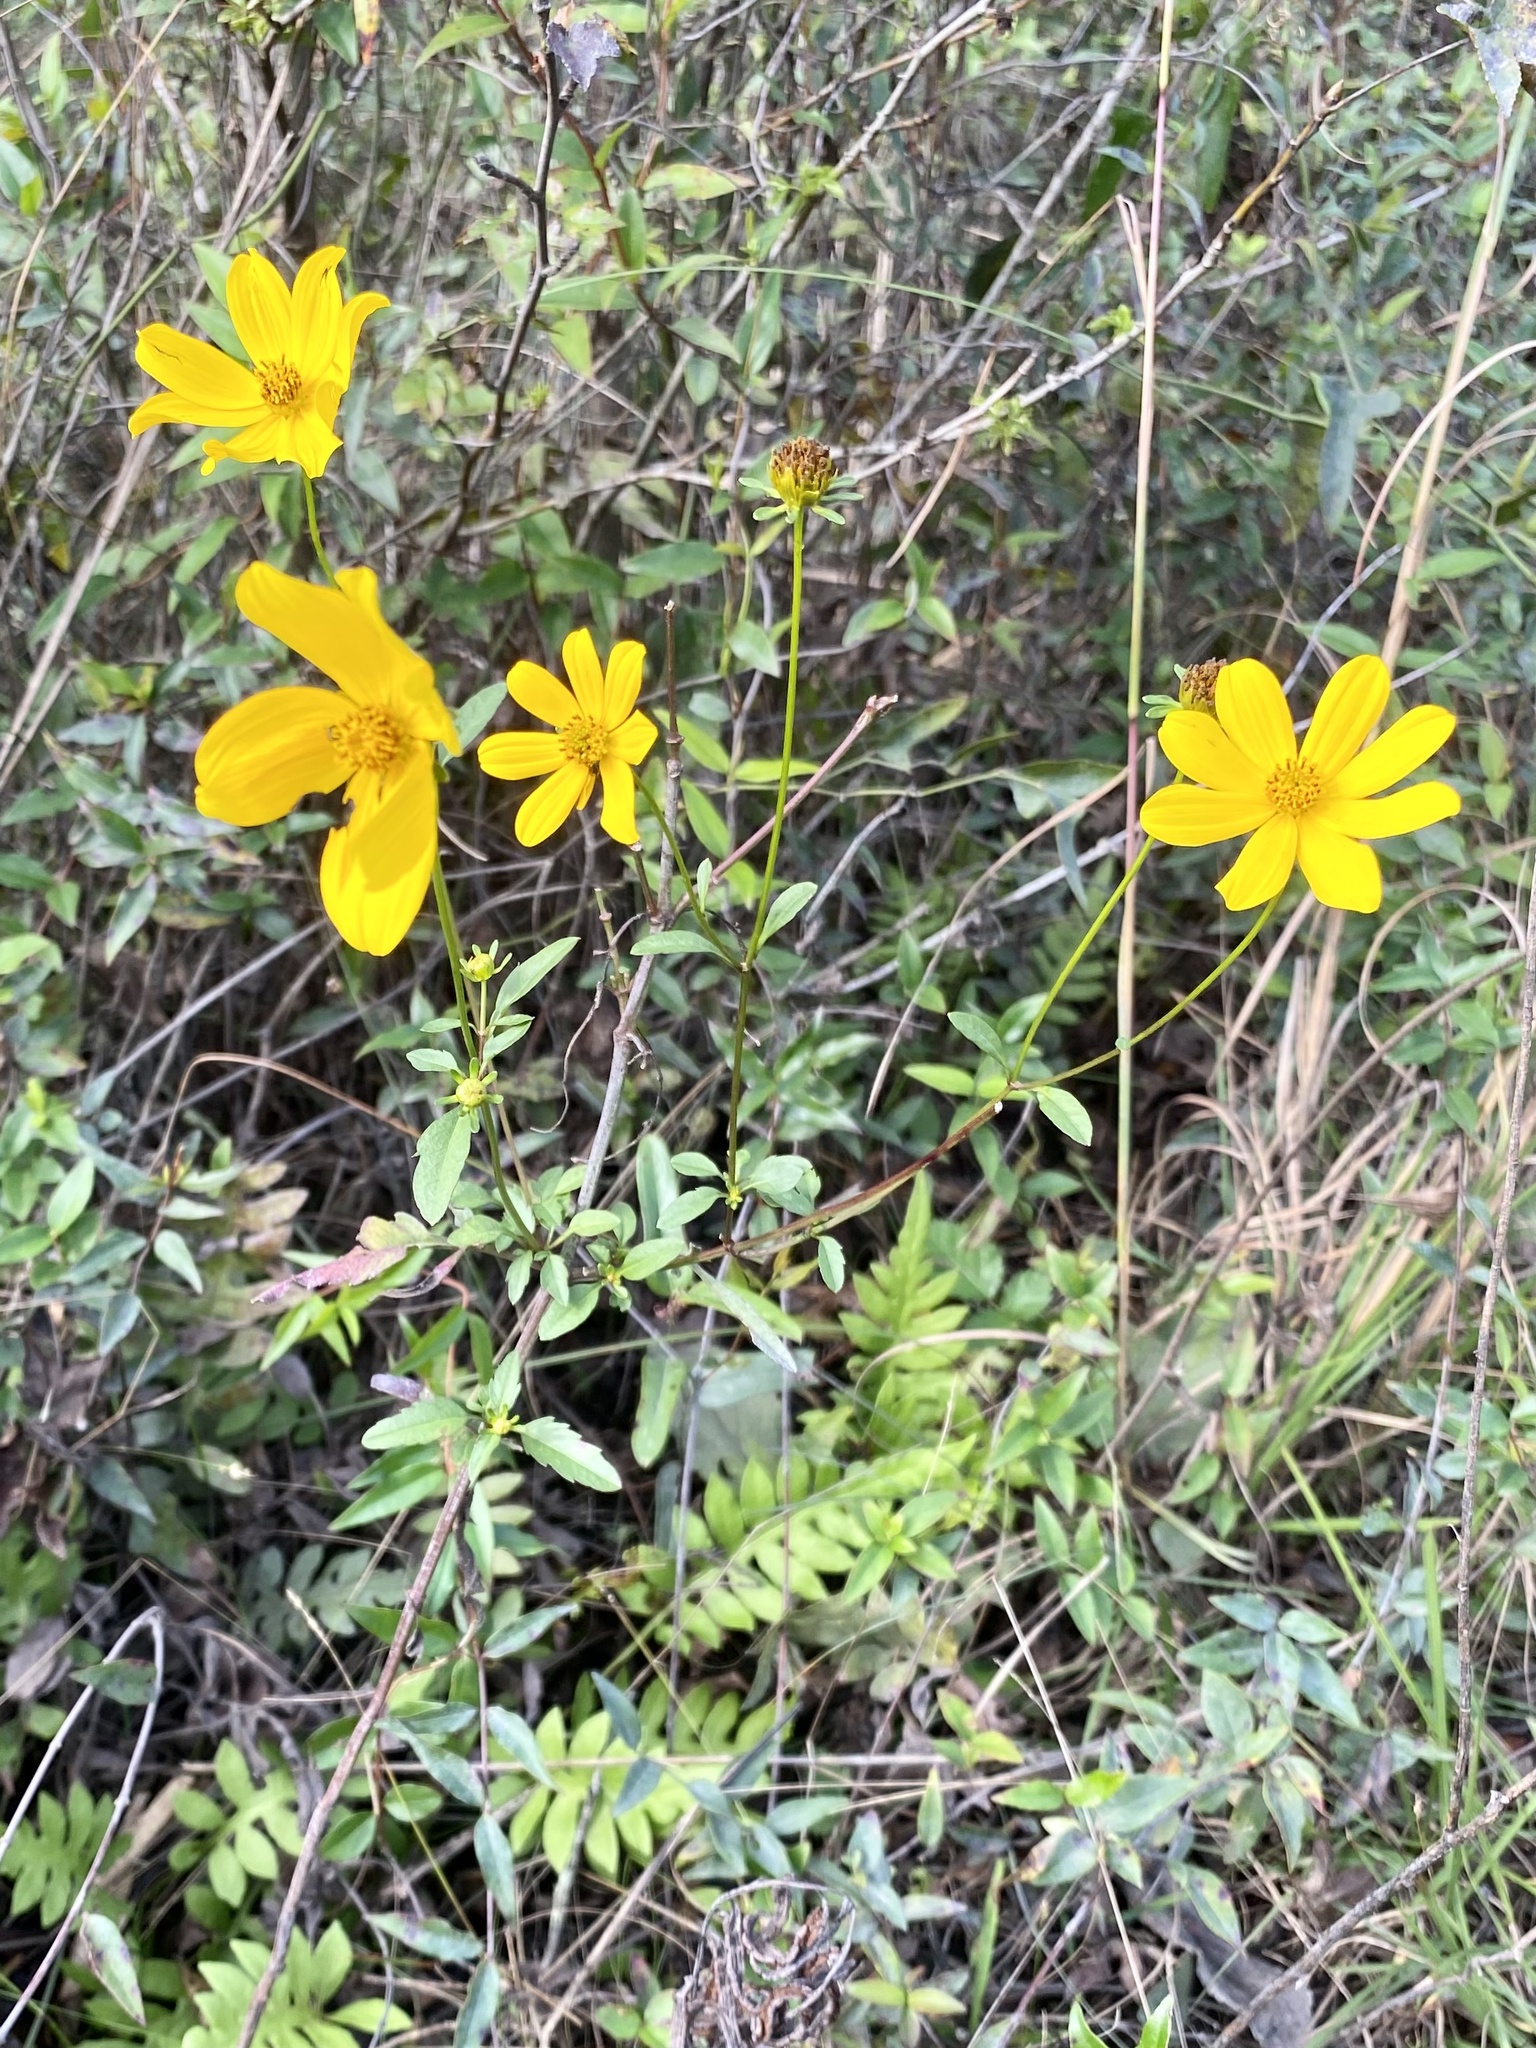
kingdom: Plantae
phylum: Tracheophyta
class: Magnoliopsida
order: Asterales
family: Asteraceae
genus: Bidens
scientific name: Bidens mitis
